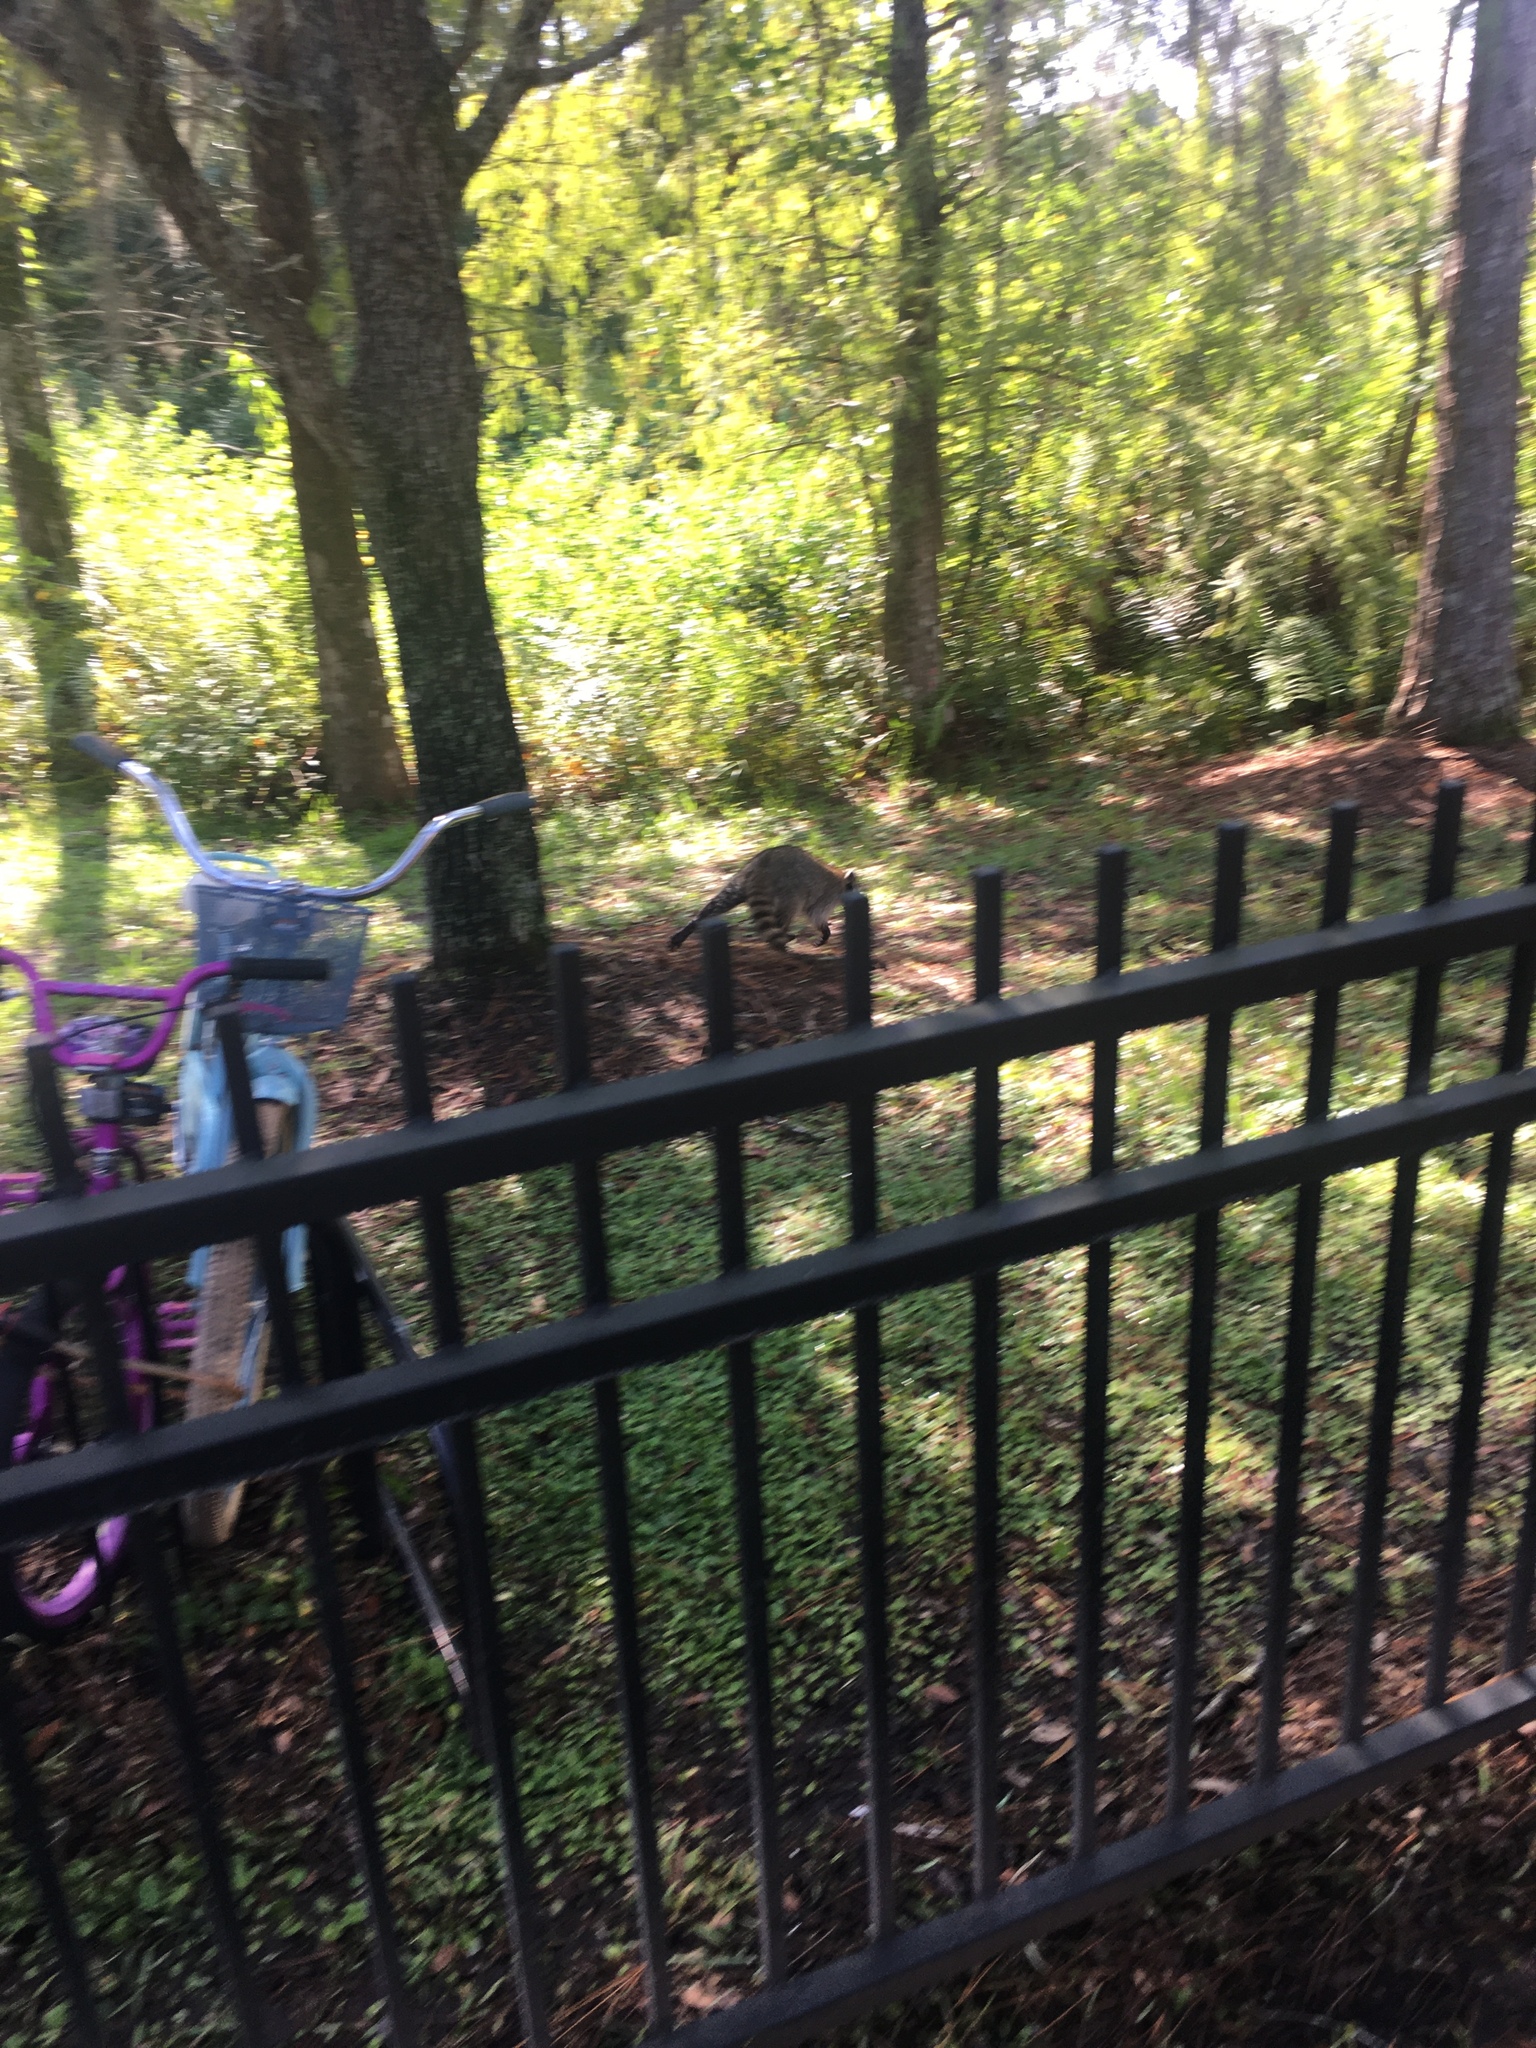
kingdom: Animalia
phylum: Chordata
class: Mammalia
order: Carnivora
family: Procyonidae
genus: Procyon
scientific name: Procyon lotor
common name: Raccoon
